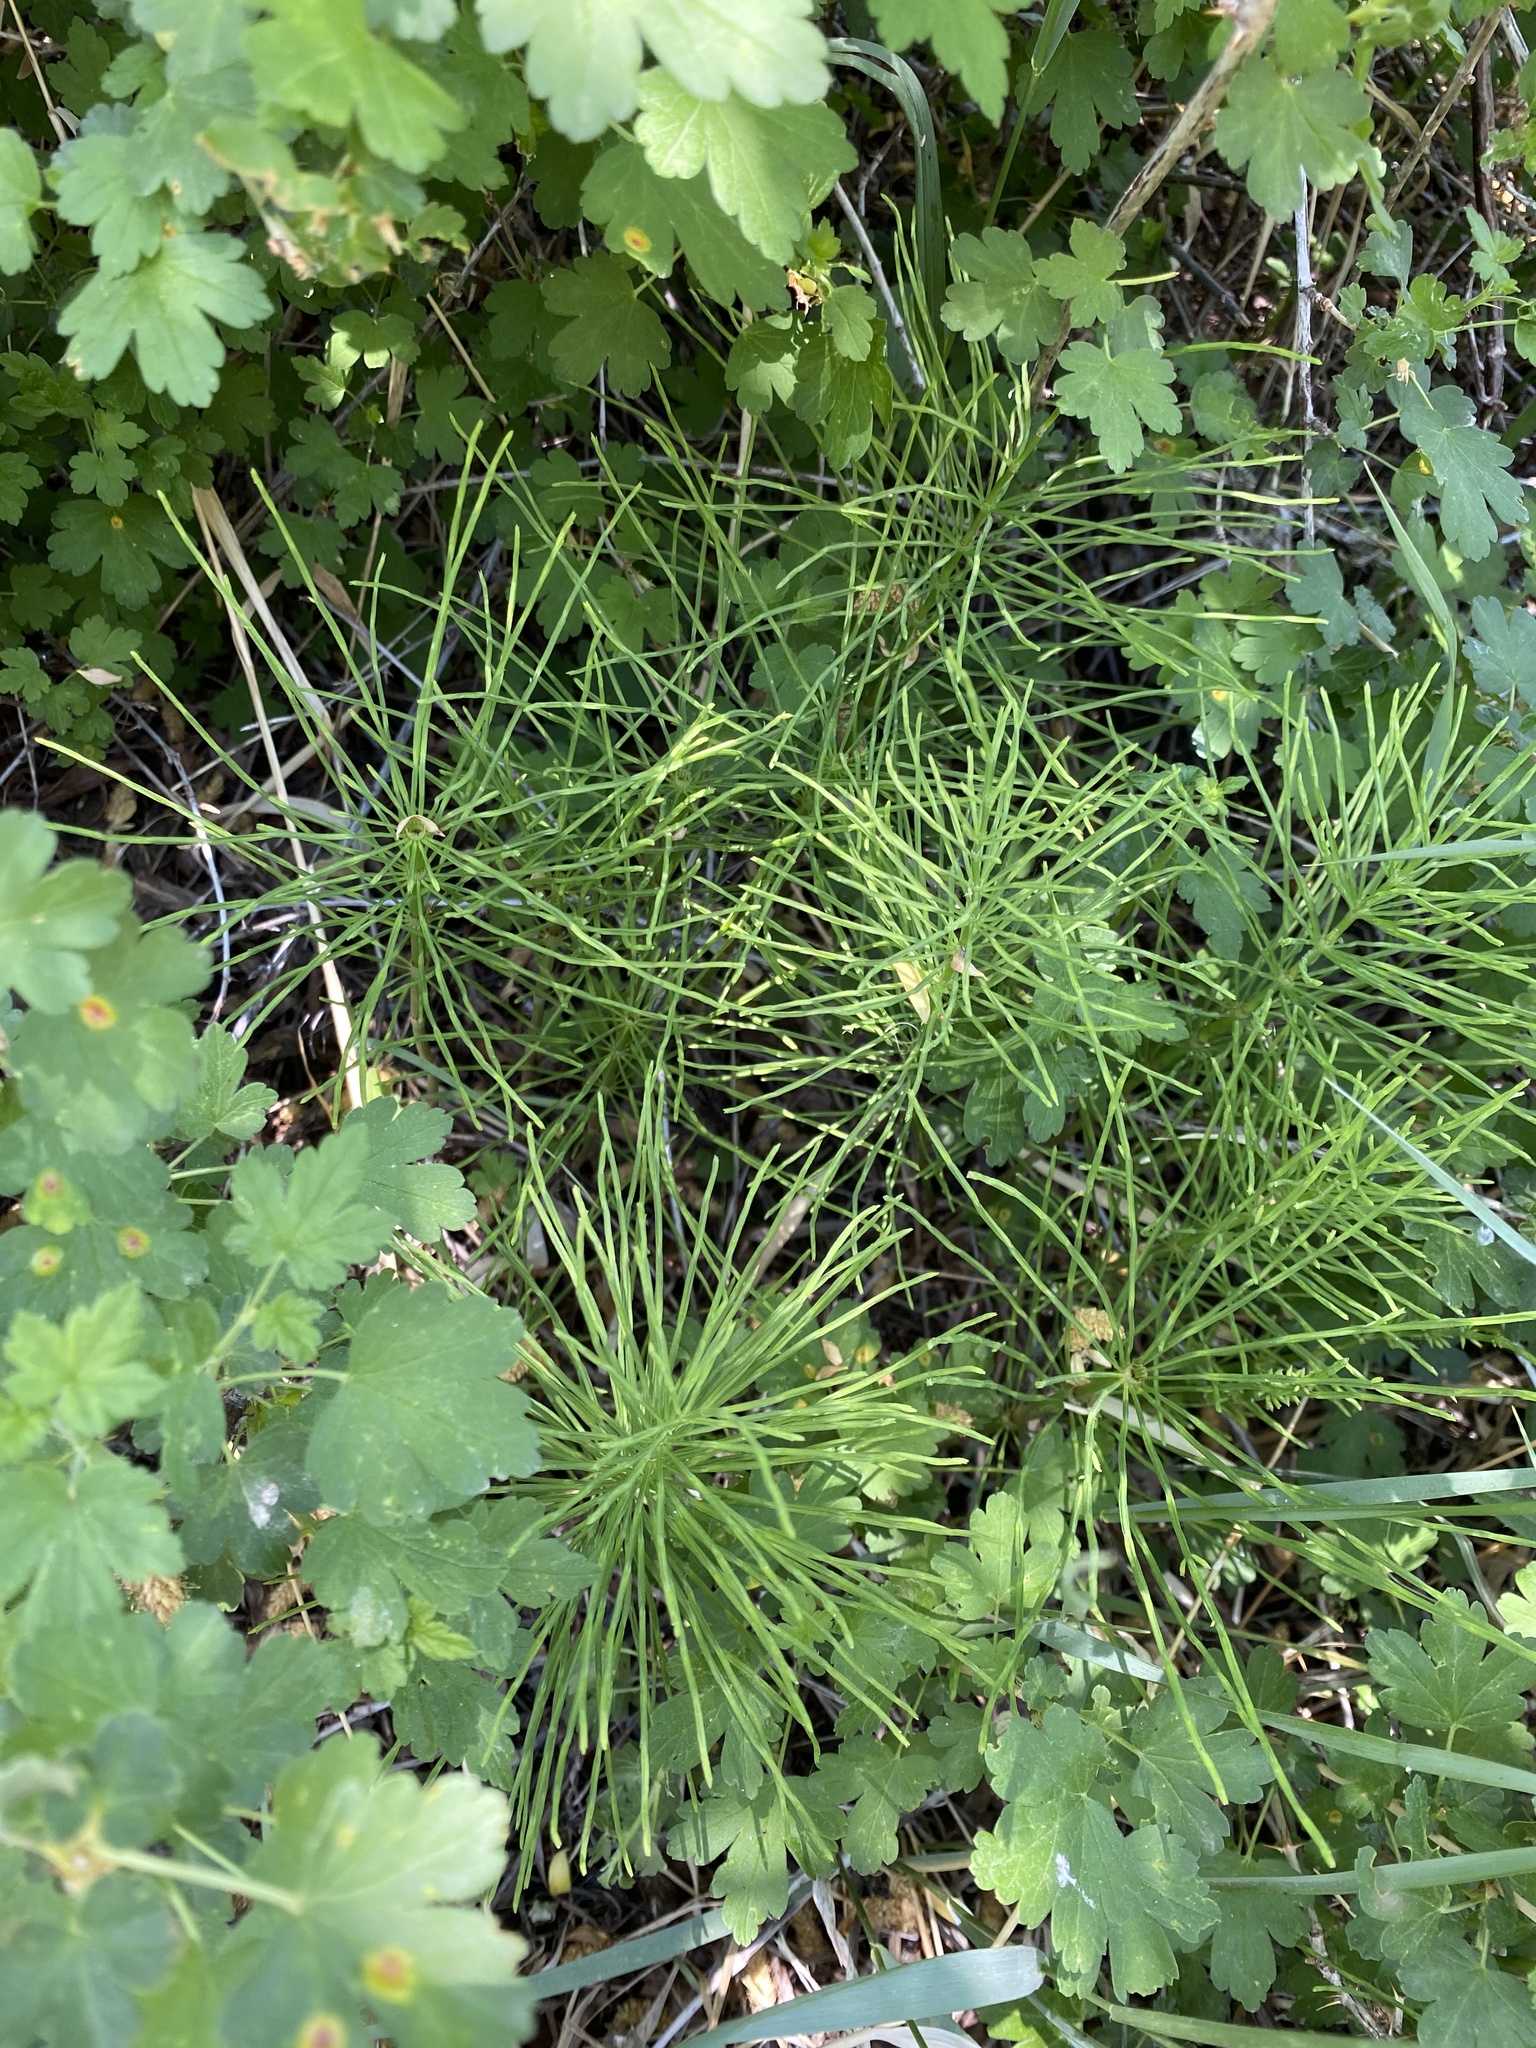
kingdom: Plantae
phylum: Tracheophyta
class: Polypodiopsida
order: Equisetales
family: Equisetaceae
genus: Equisetum
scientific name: Equisetum arvense
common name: Field horsetail
